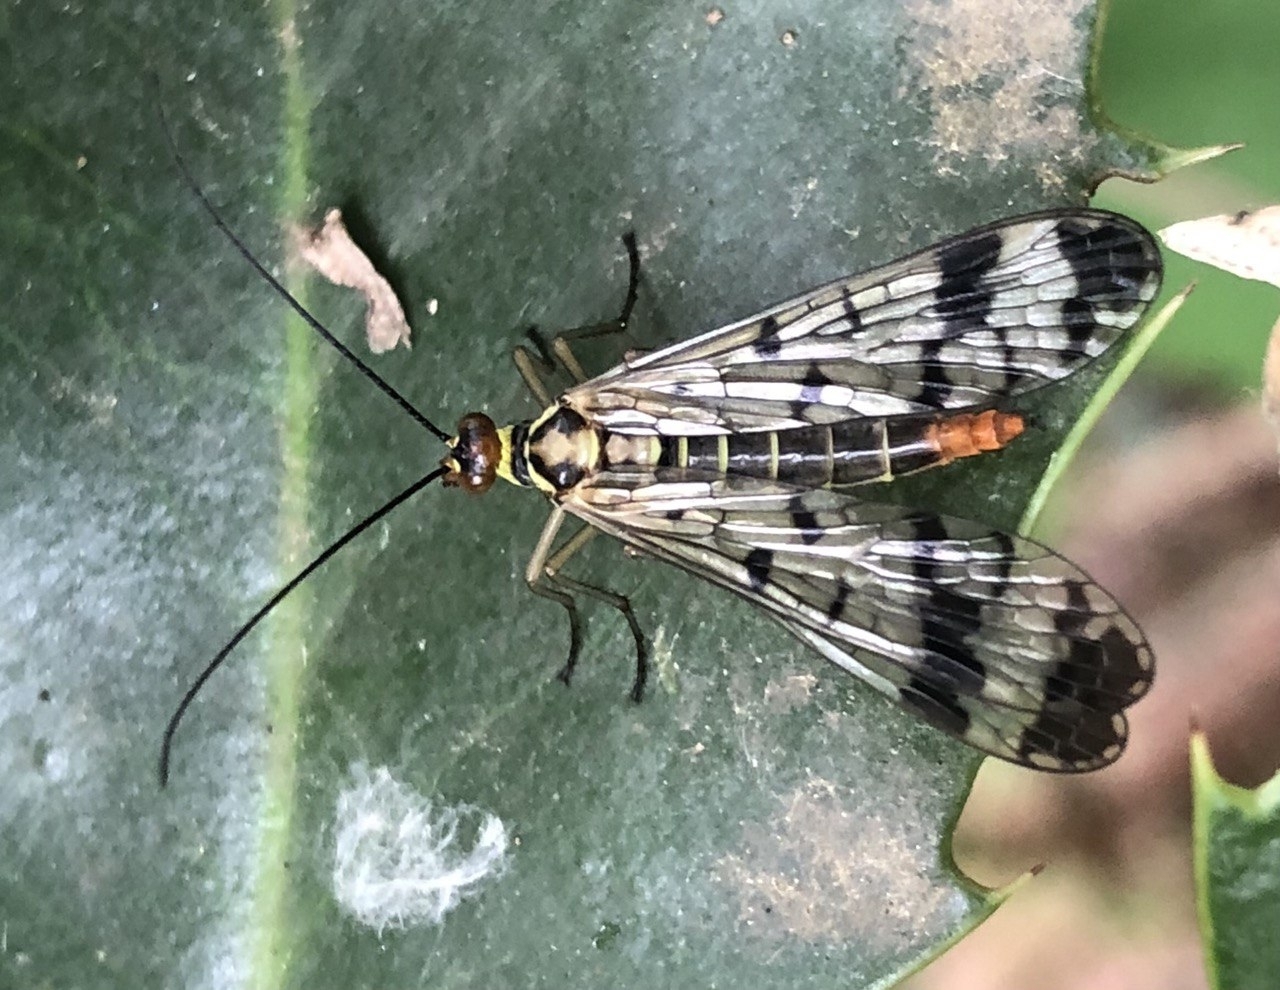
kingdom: Animalia
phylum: Arthropoda
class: Insecta
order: Mecoptera
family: Panorpidae
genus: Panorpa
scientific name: Panorpa cognata
